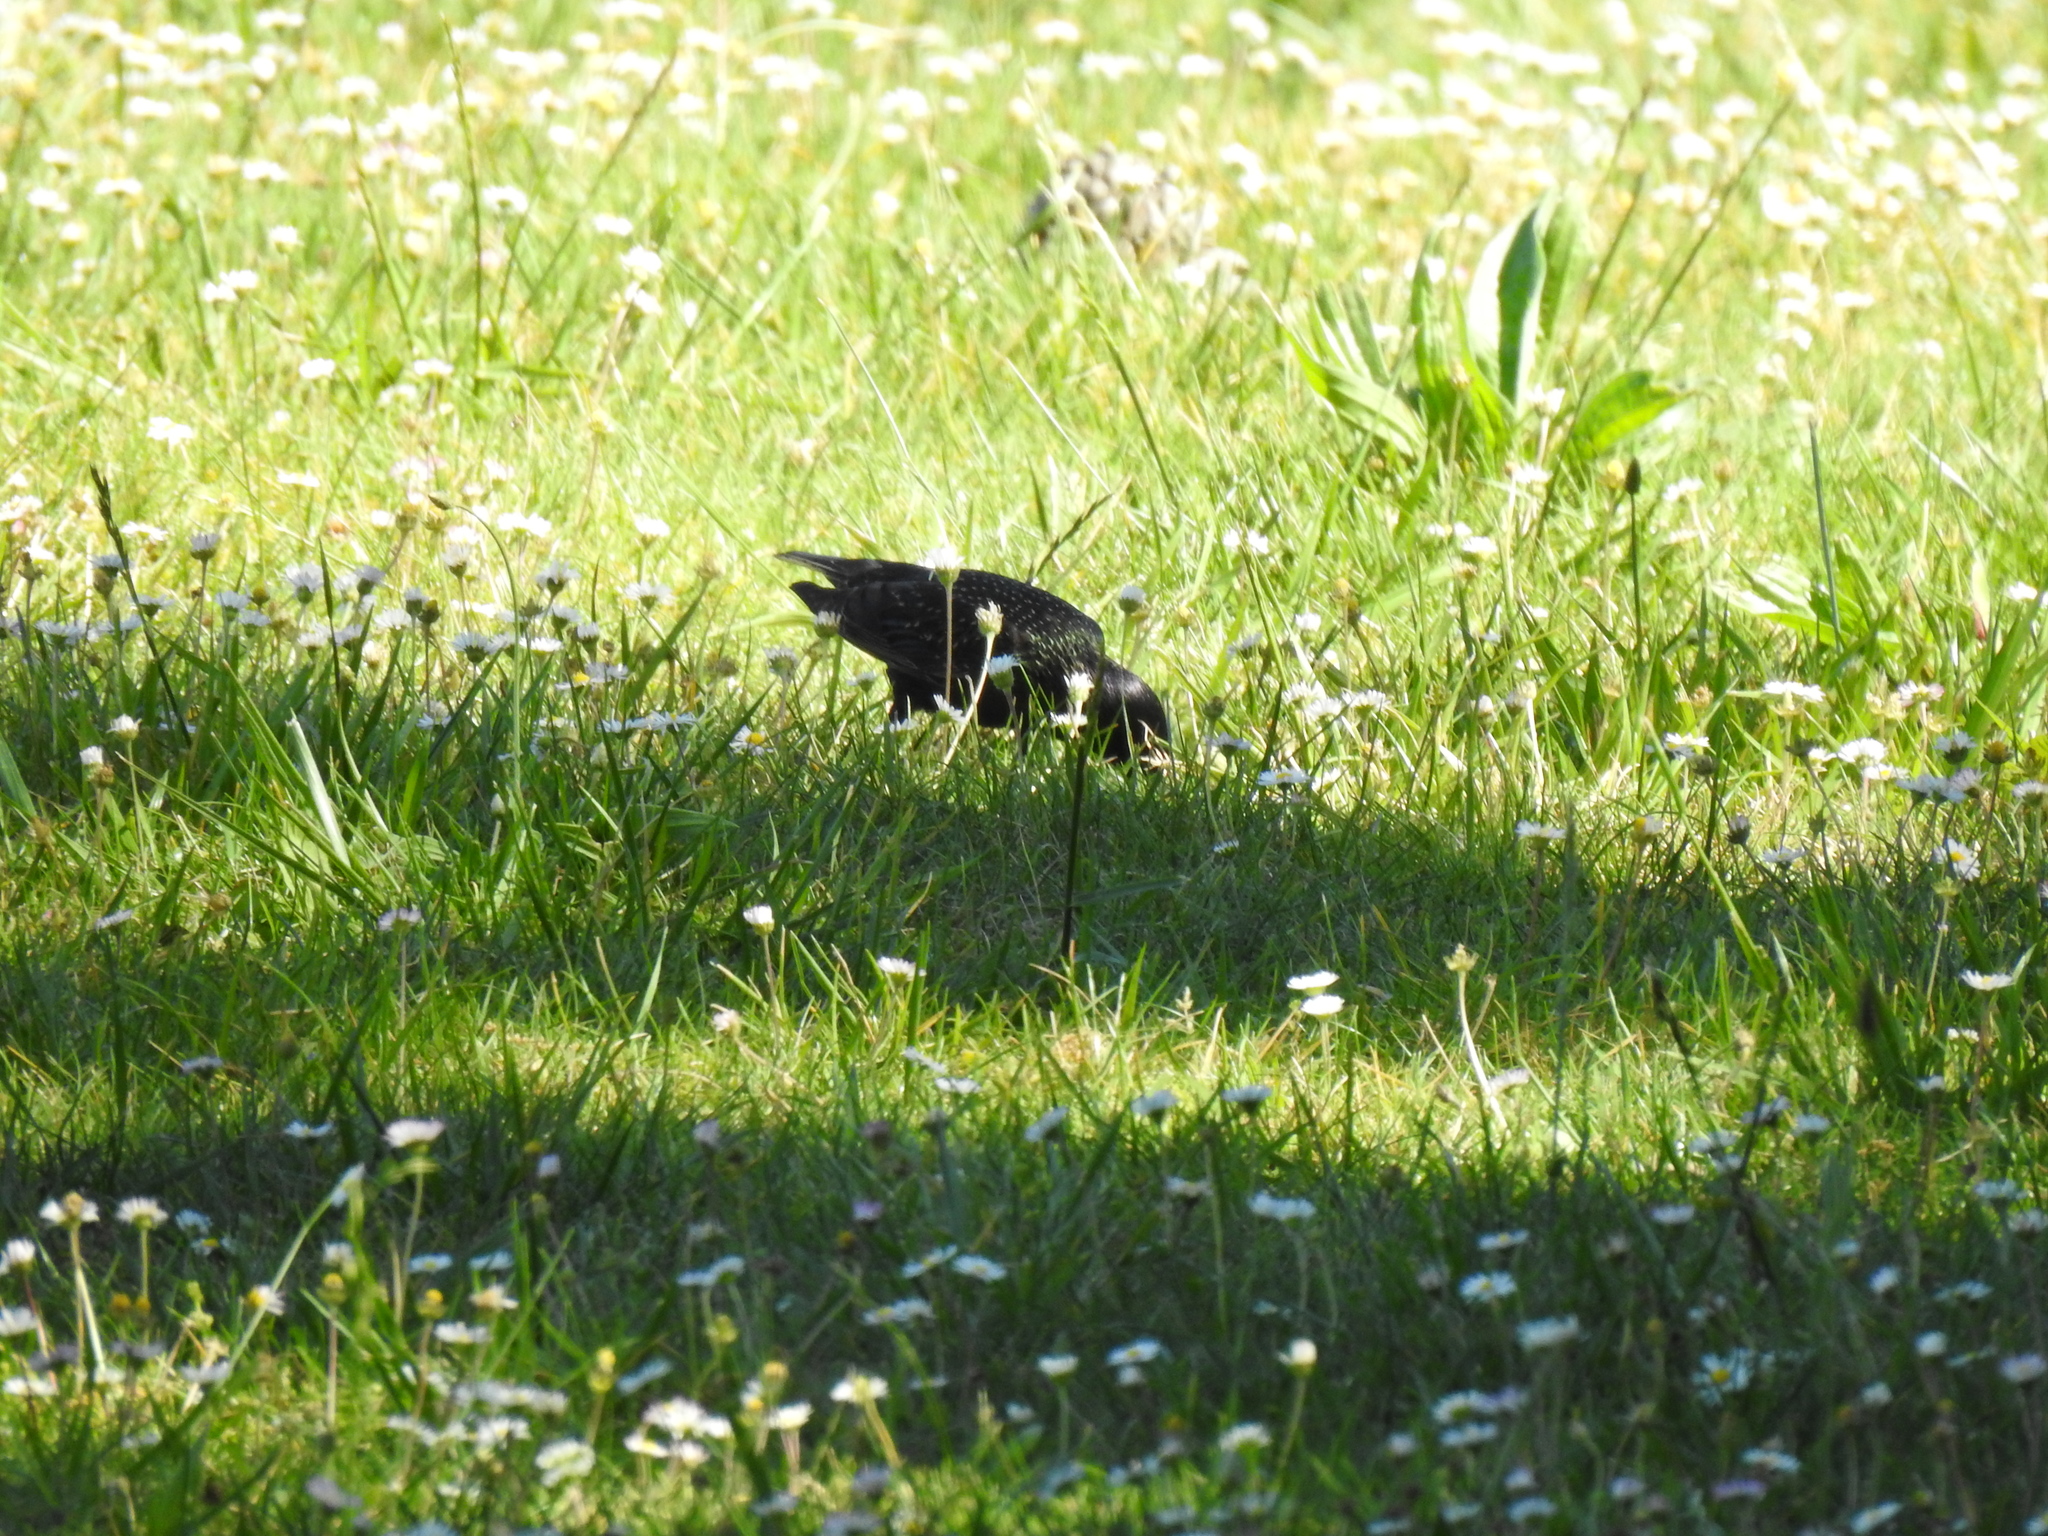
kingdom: Animalia
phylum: Chordata
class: Aves
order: Passeriformes
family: Sturnidae
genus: Sturnus
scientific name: Sturnus vulgaris
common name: Common starling
